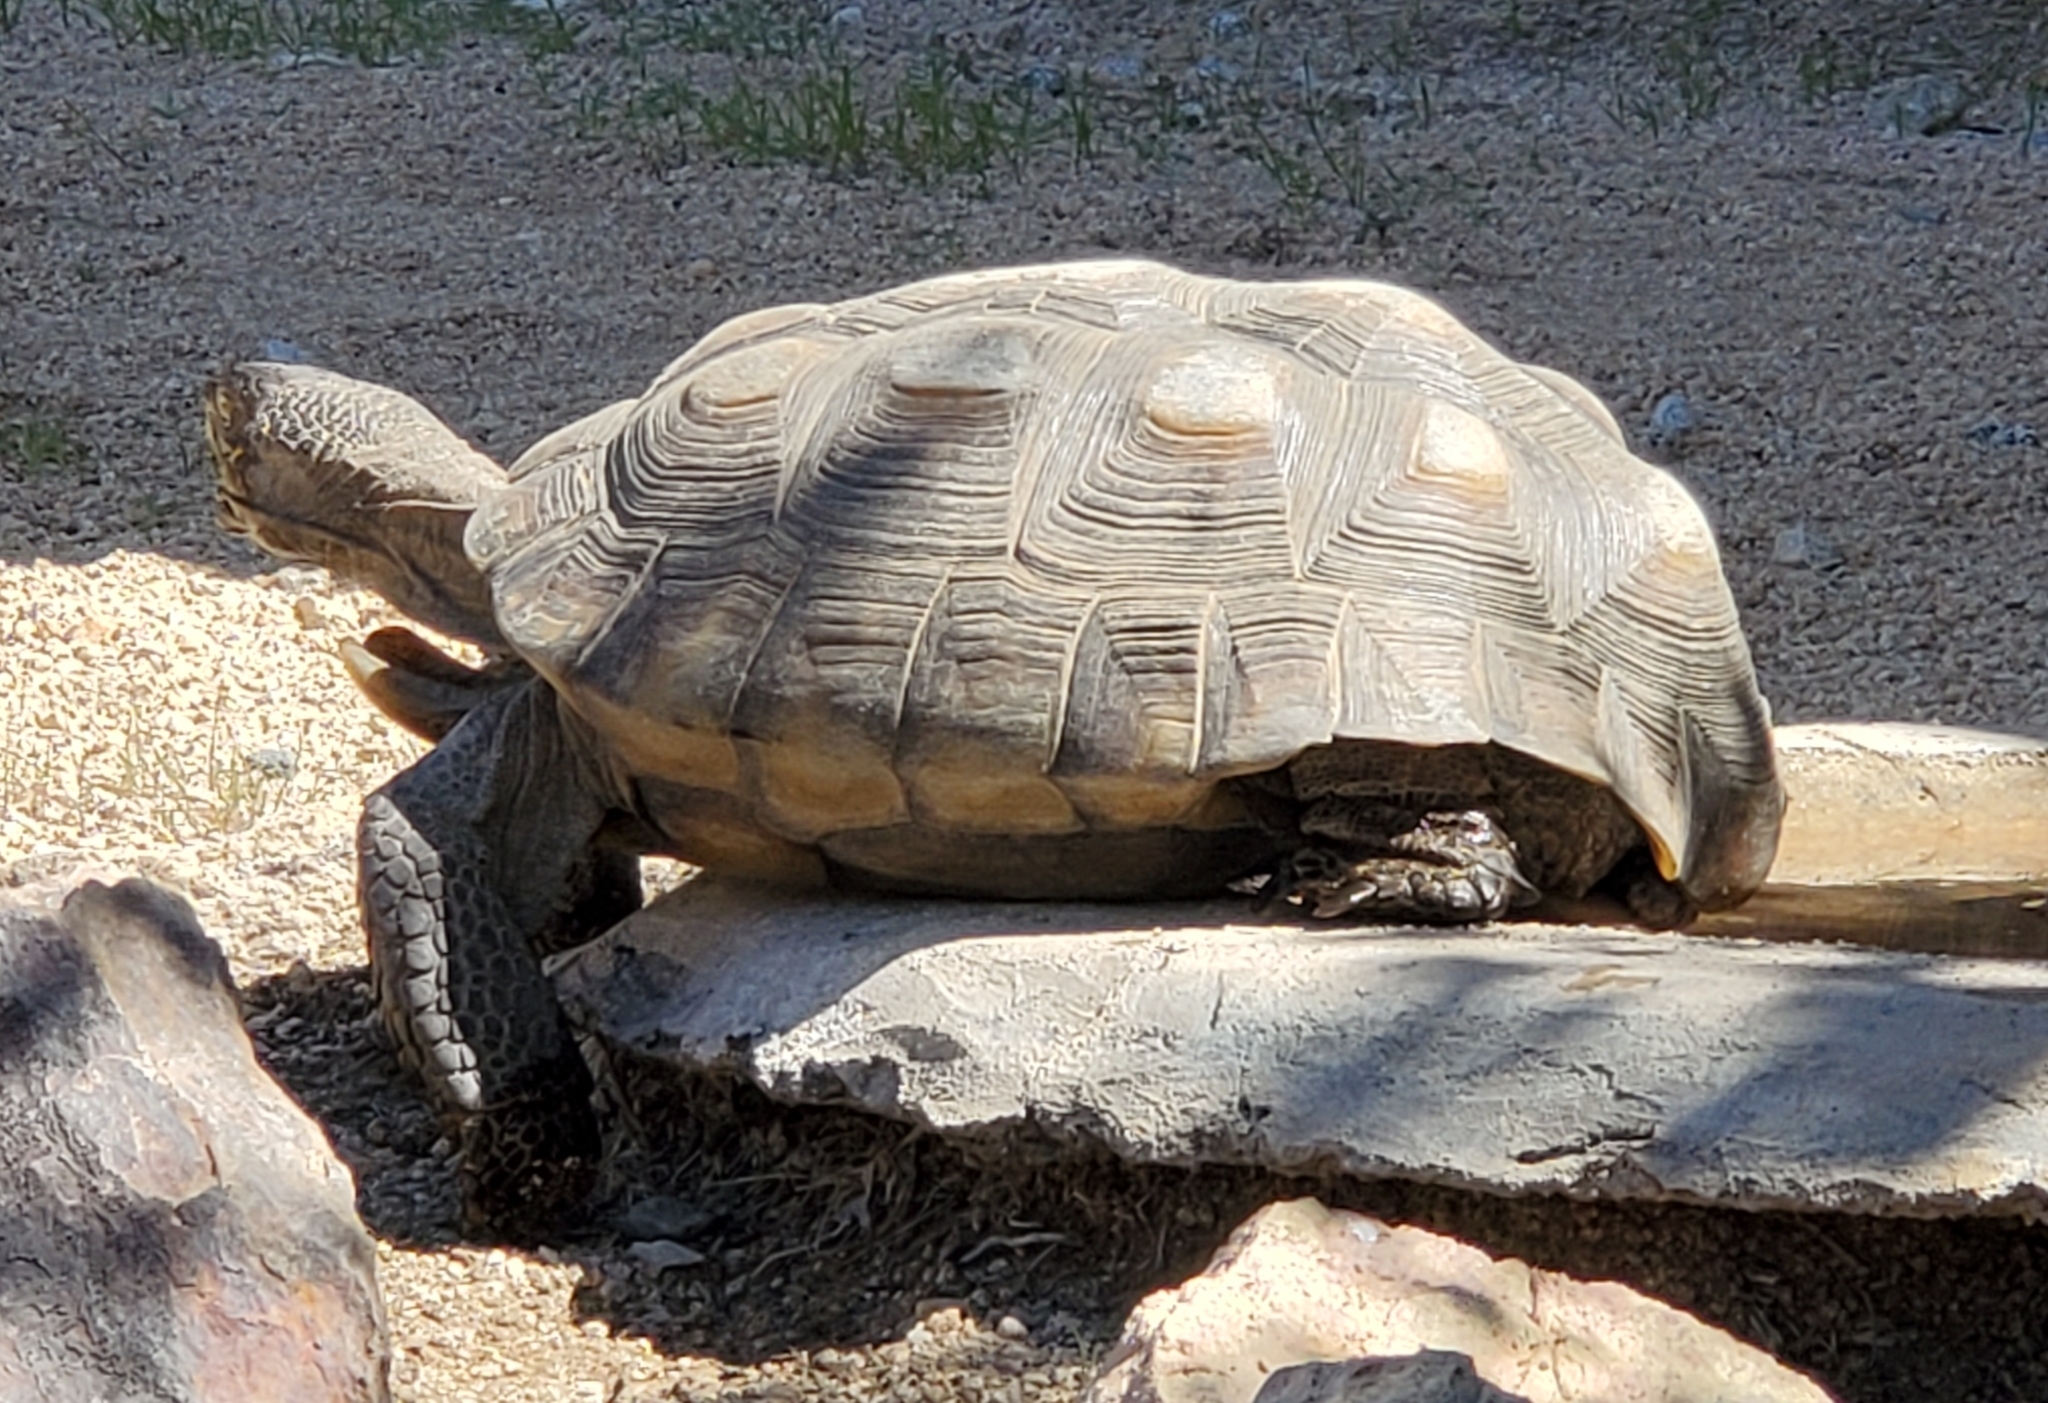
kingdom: Animalia
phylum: Chordata
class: Testudines
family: Testudinidae
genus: Gopherus
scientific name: Gopherus agassizii
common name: Mojave desert tortoise
